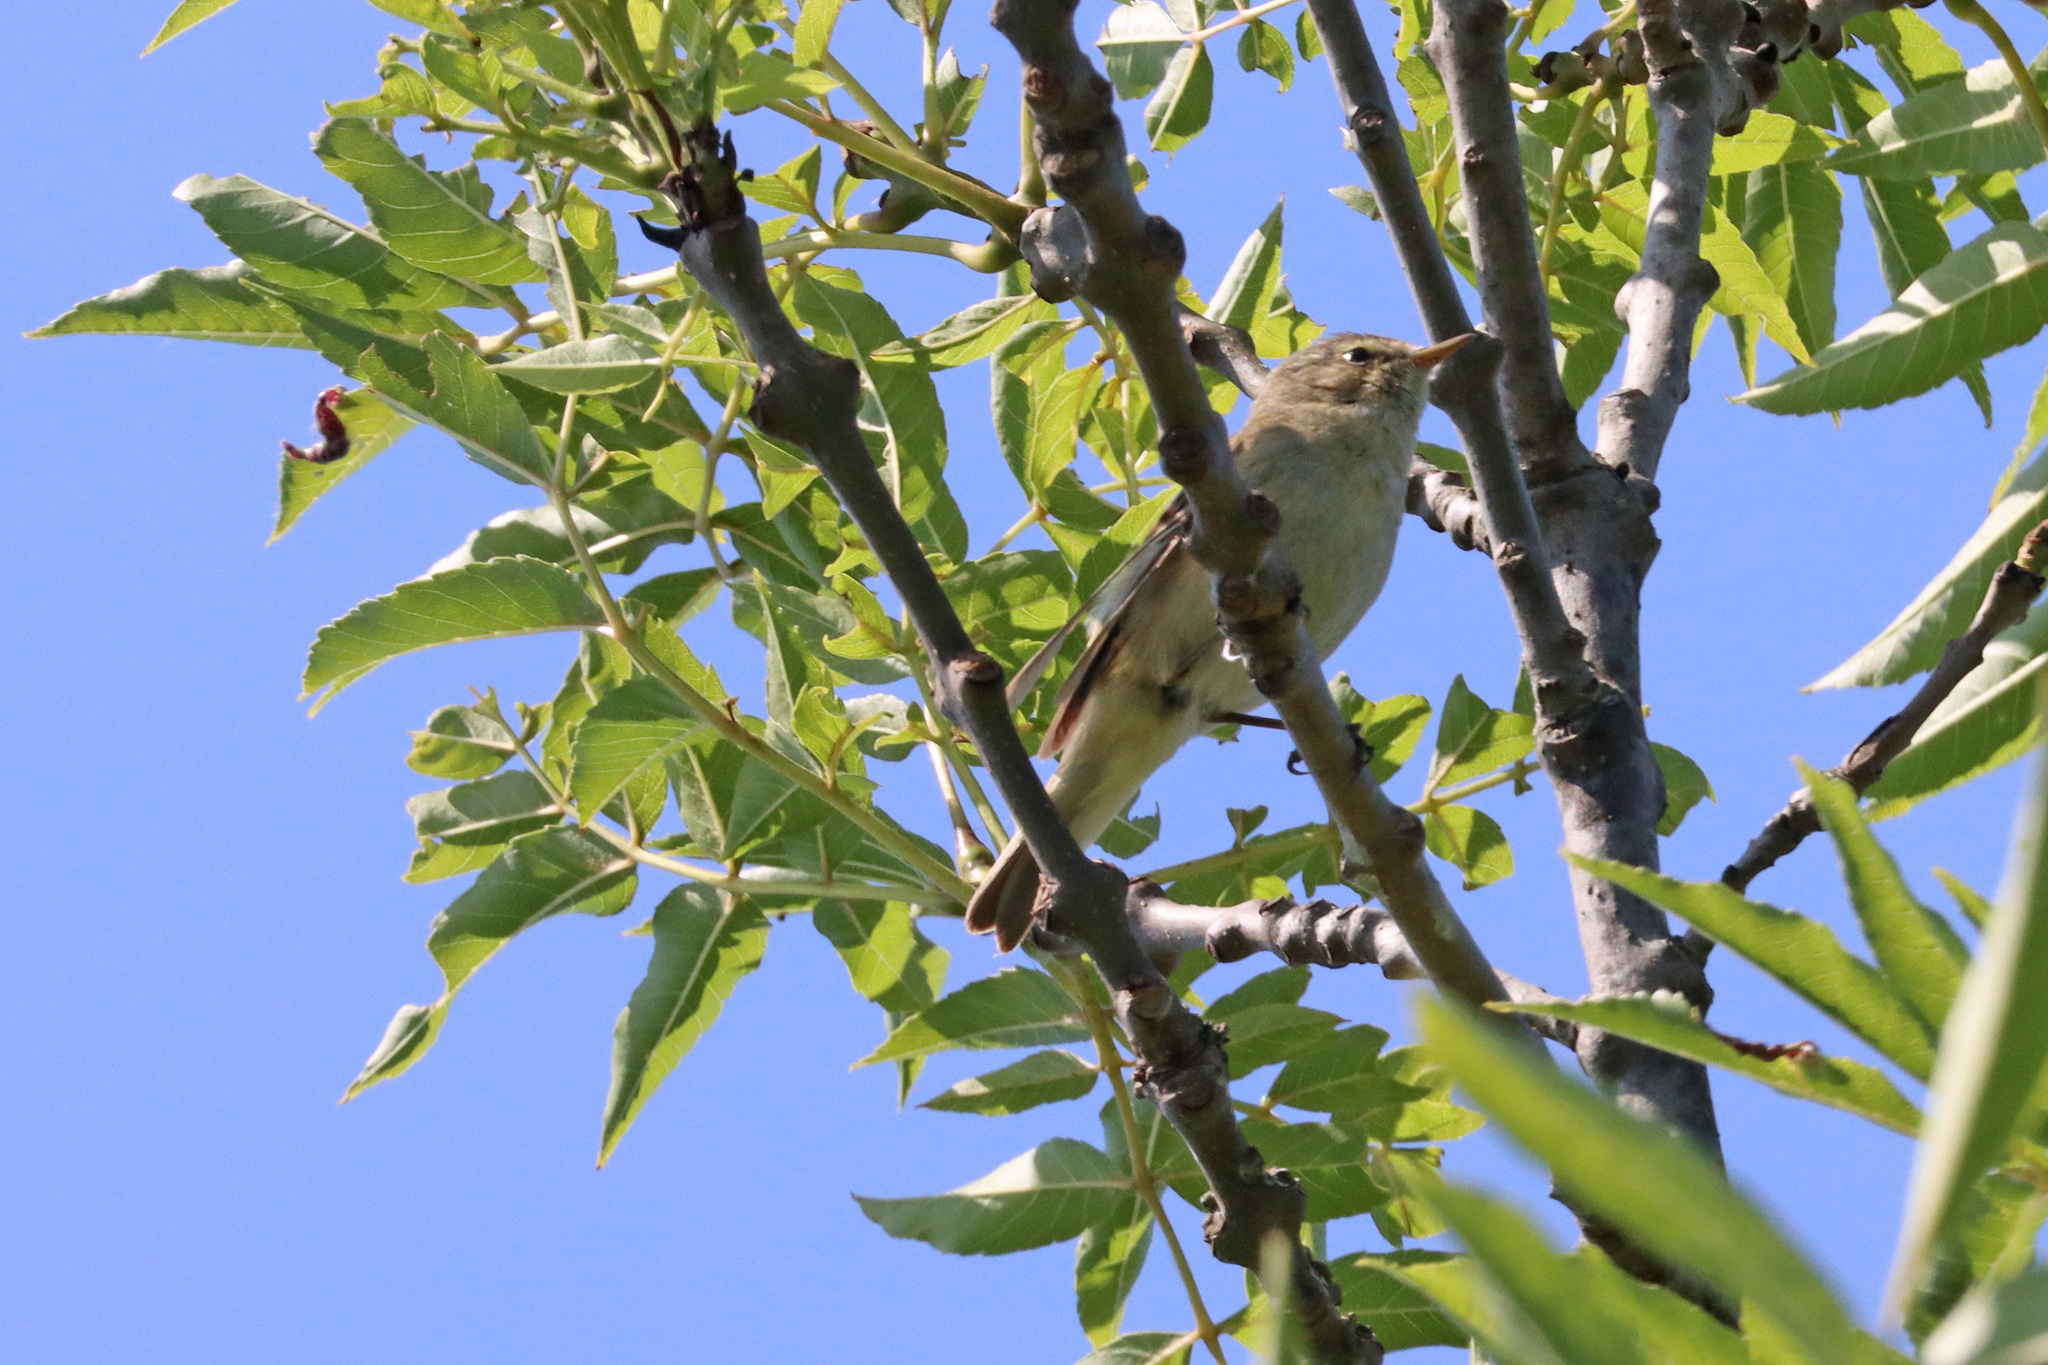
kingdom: Animalia
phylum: Chordata
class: Aves
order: Passeriformes
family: Phylloscopidae
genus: Phylloscopus
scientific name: Phylloscopus collybita
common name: Common chiffchaff
